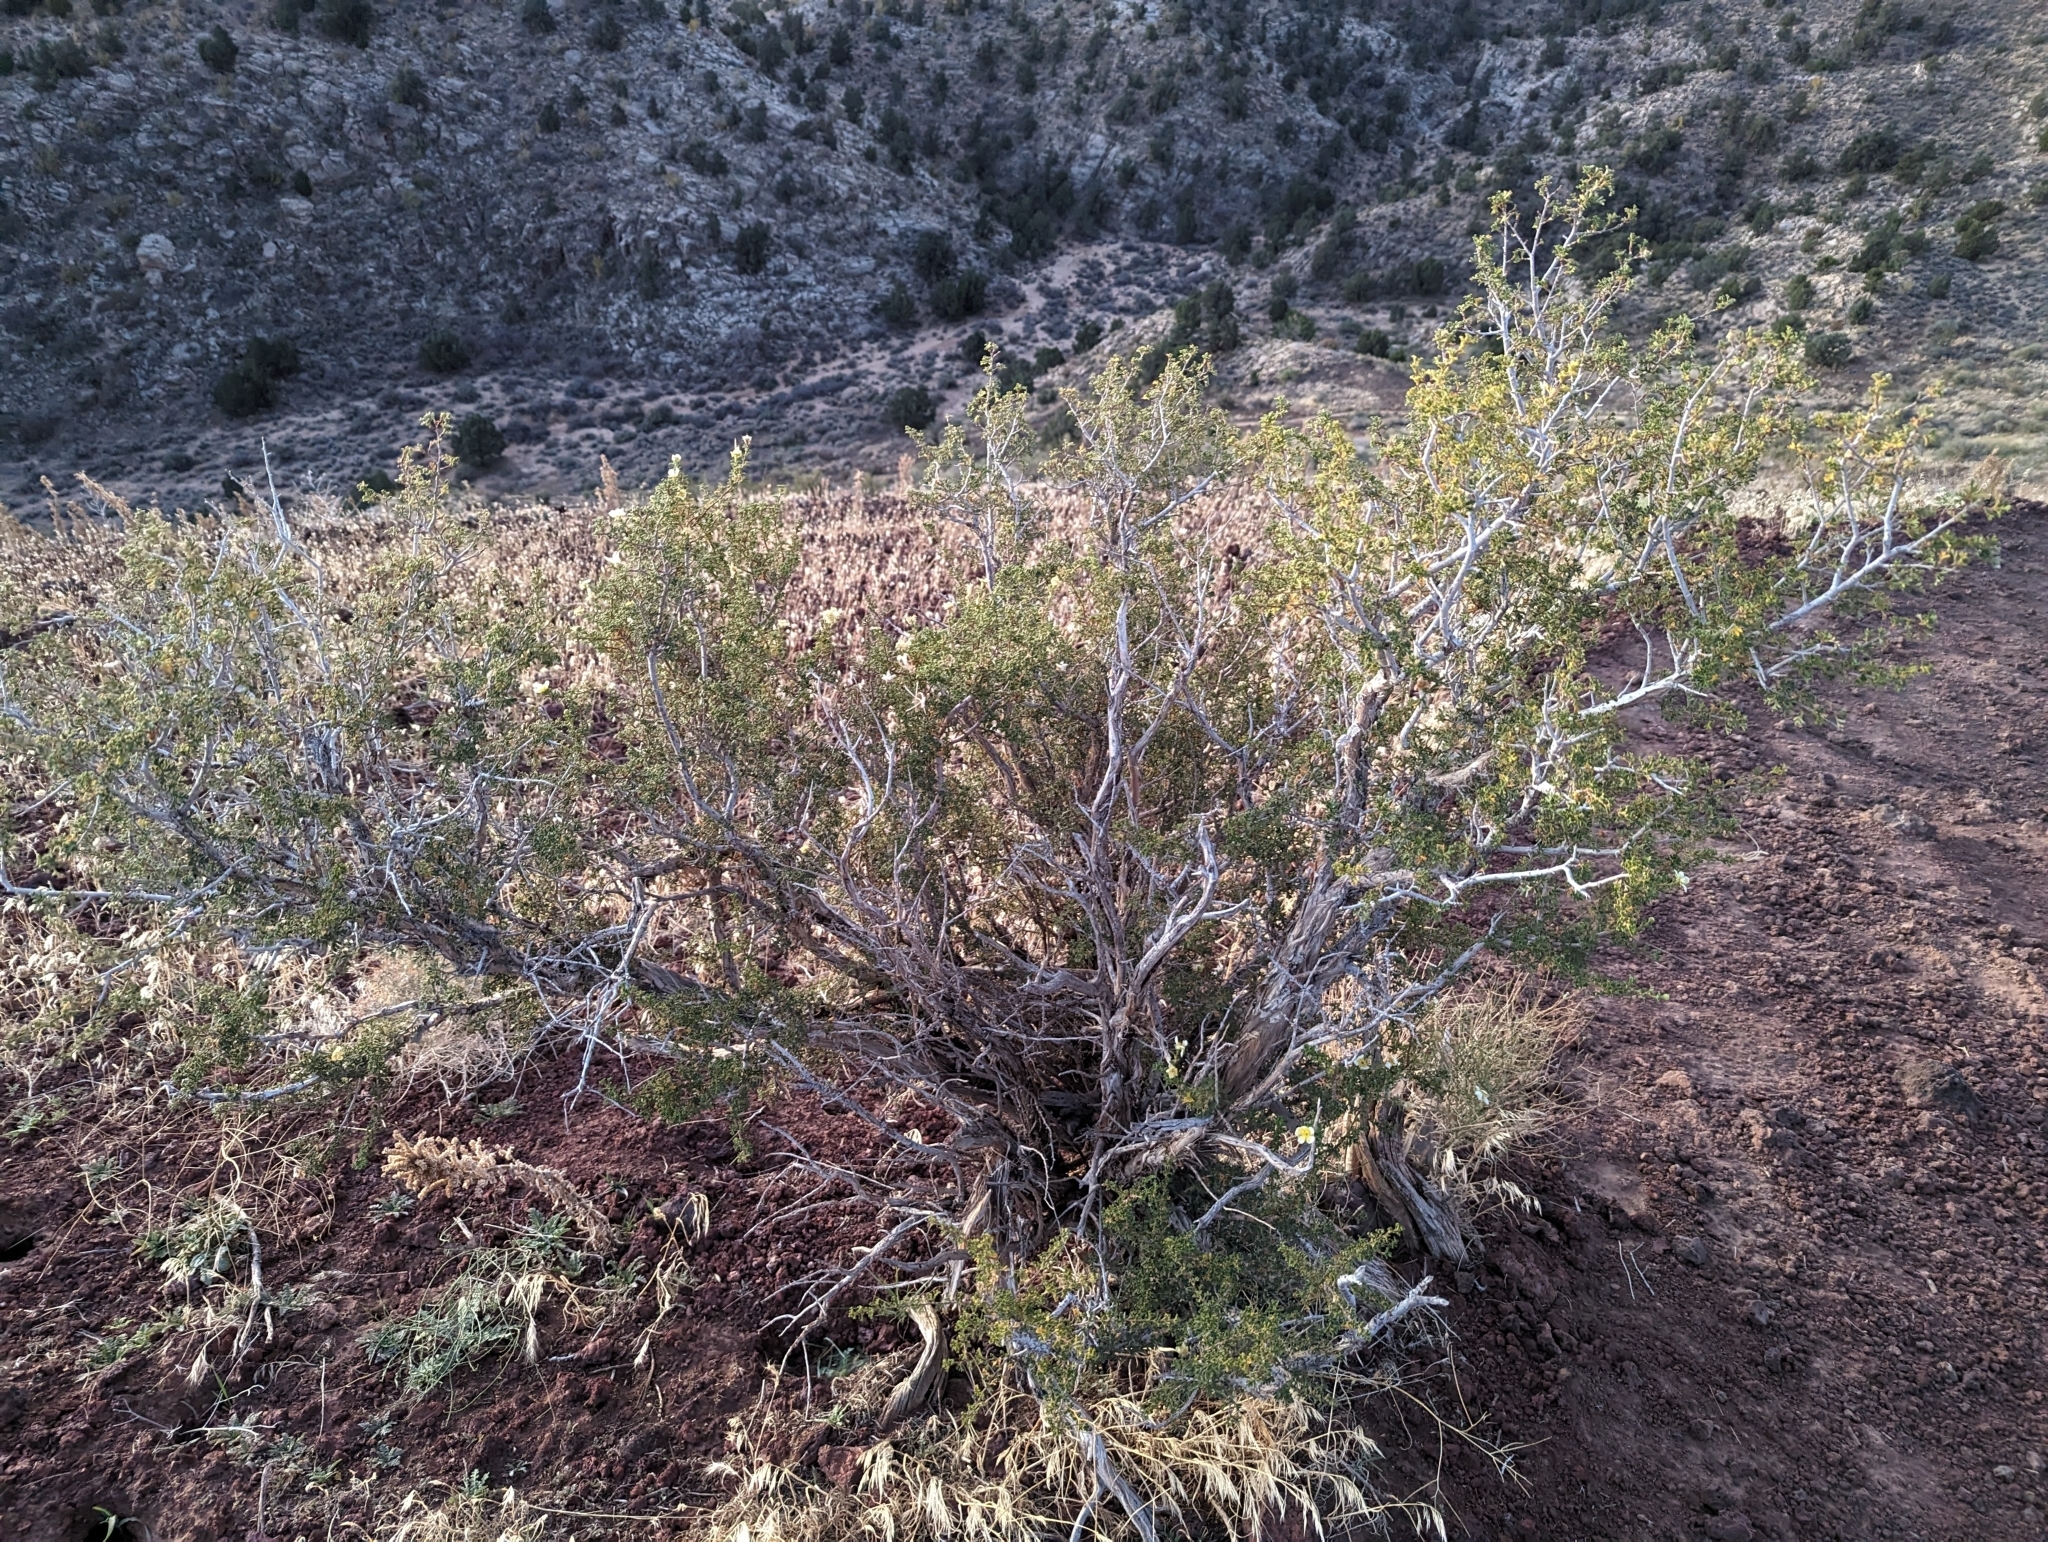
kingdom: Plantae
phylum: Tracheophyta
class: Magnoliopsida
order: Rosales
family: Rosaceae
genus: Purshia
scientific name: Purshia stansburiana
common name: Stansbury's cliffrose
